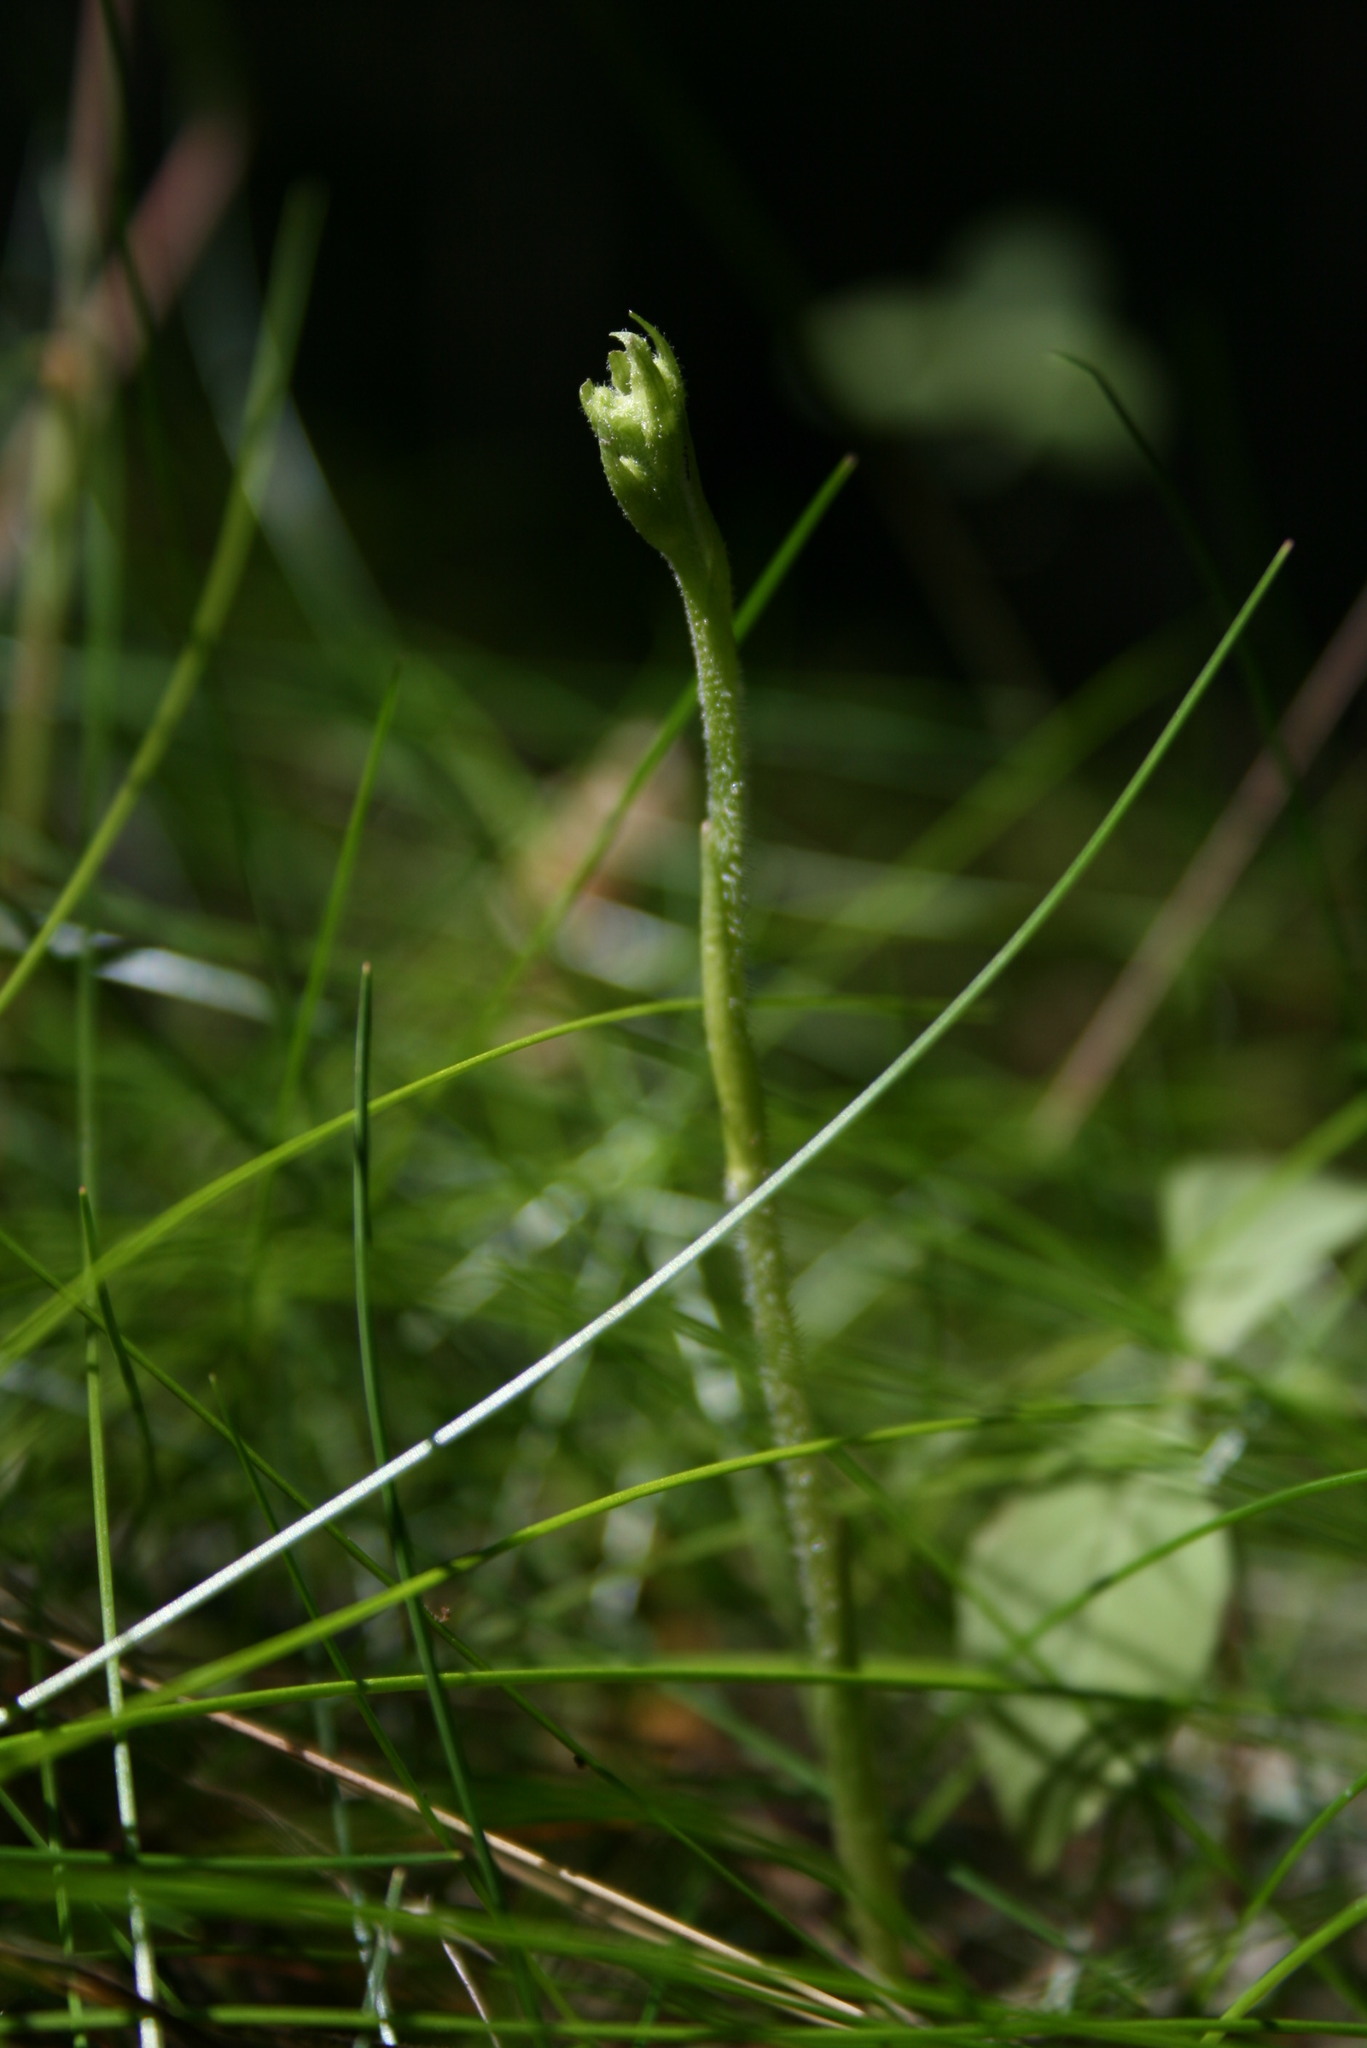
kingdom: Plantae
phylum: Tracheophyta
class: Liliopsida
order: Asparagales
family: Orchidaceae
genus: Goodyera
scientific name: Goodyera repens
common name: Creeping lady's-tresses
